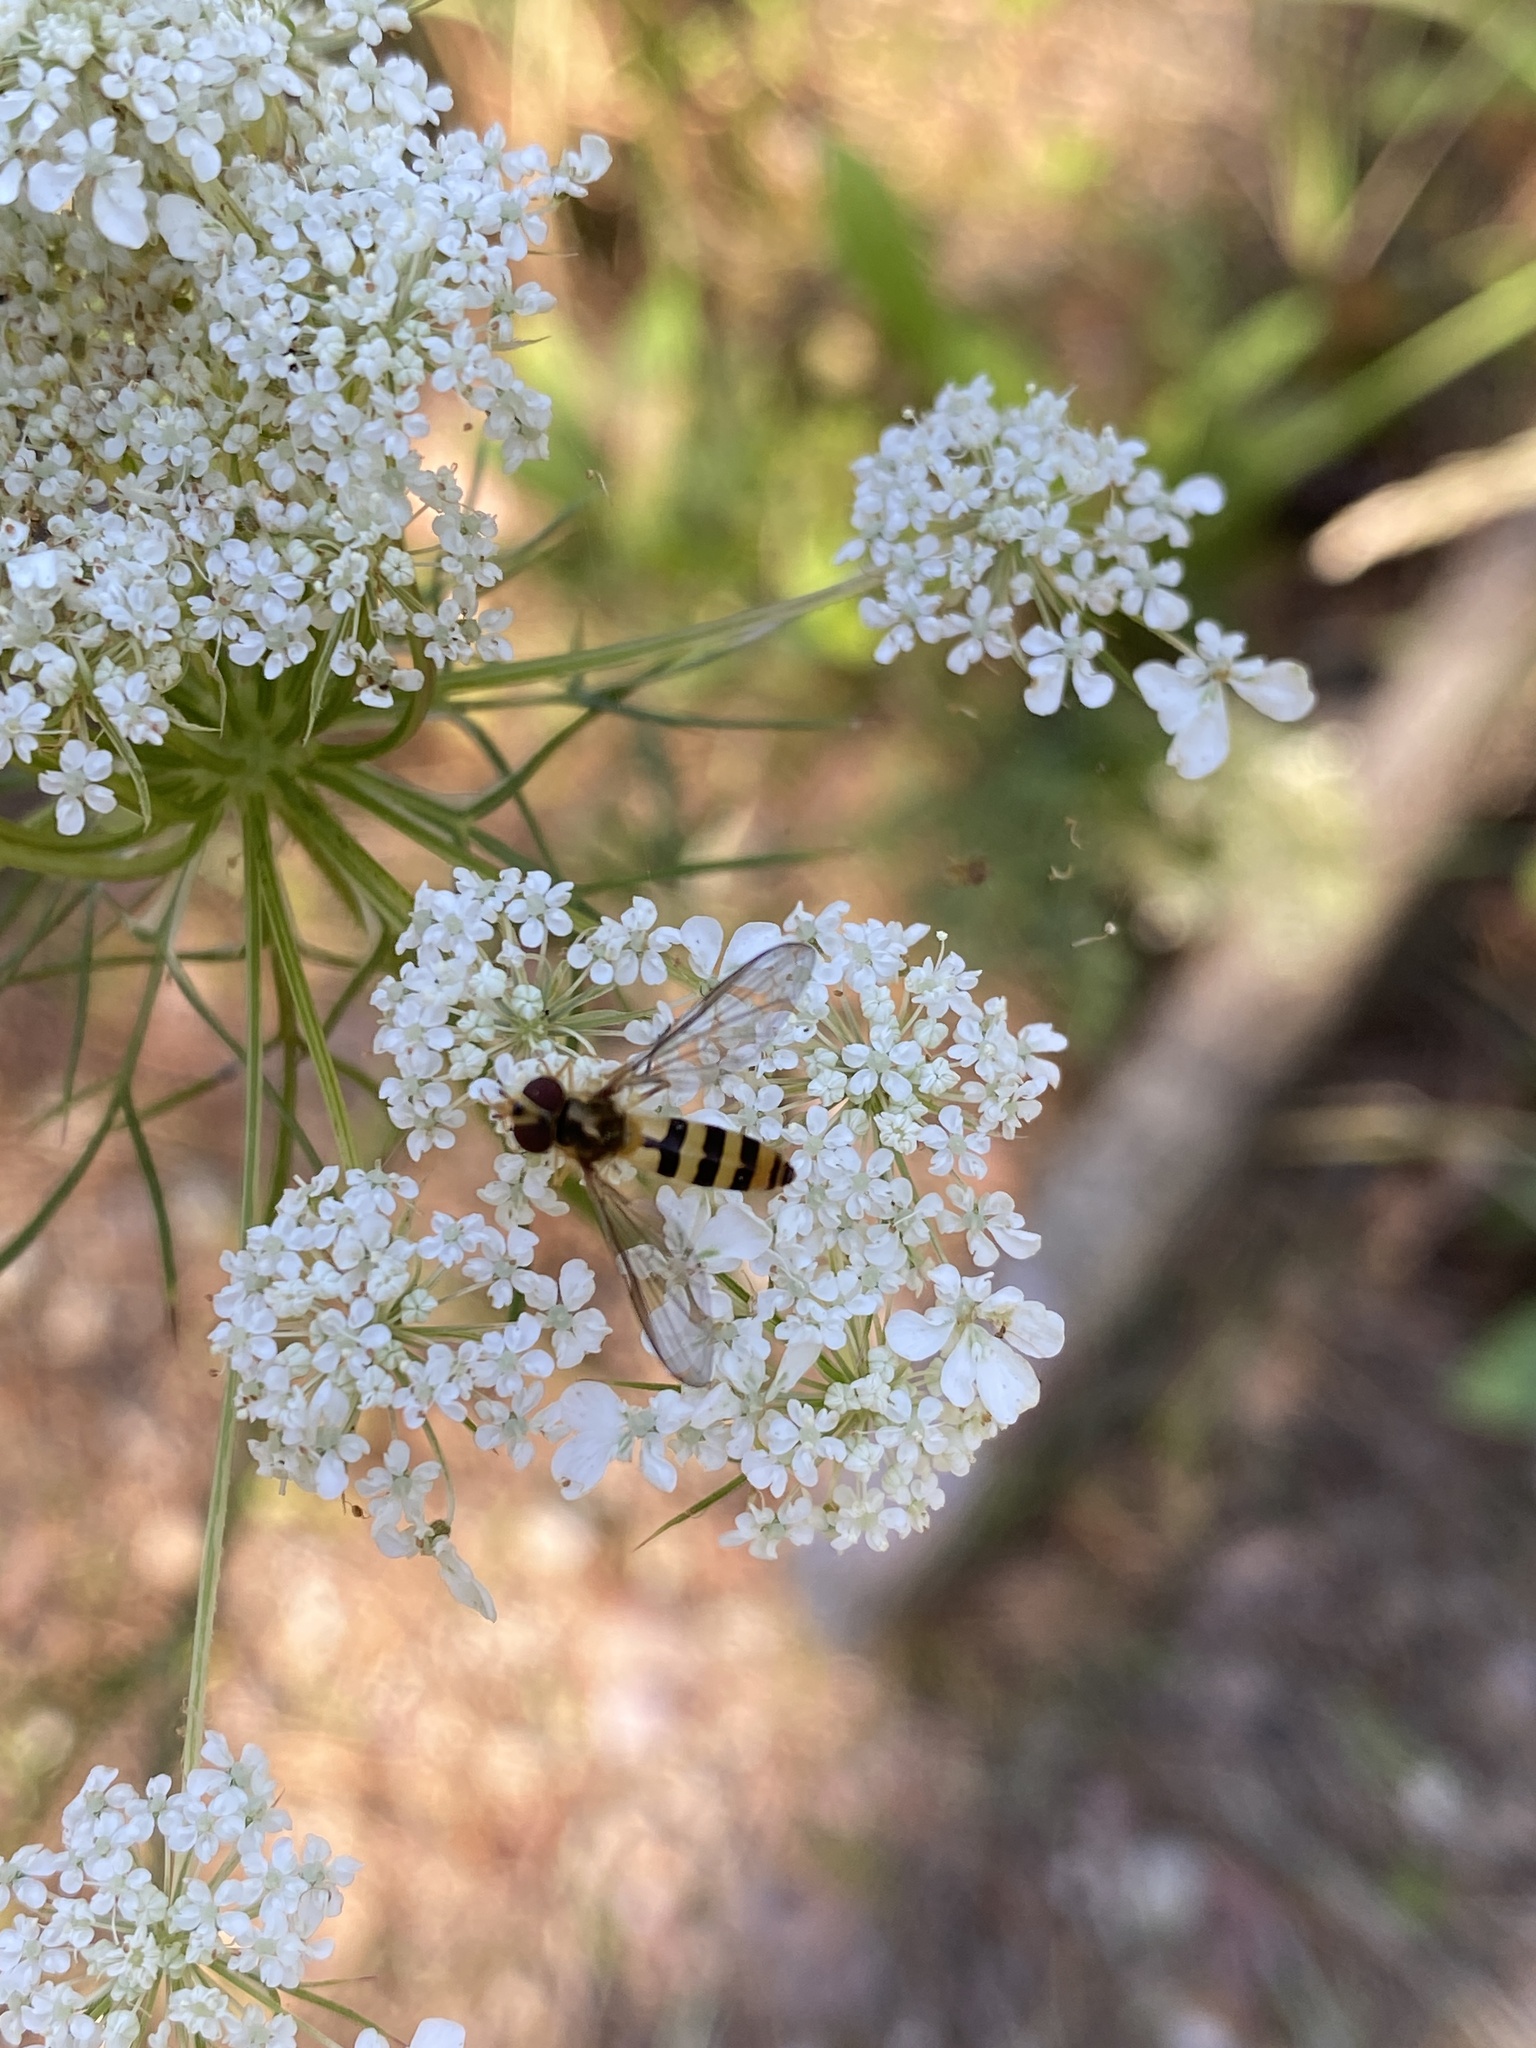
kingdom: Animalia
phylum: Arthropoda
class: Insecta
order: Diptera
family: Syrphidae
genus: Meliscaeva
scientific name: Meliscaeva cinctella
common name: American thintail fly
